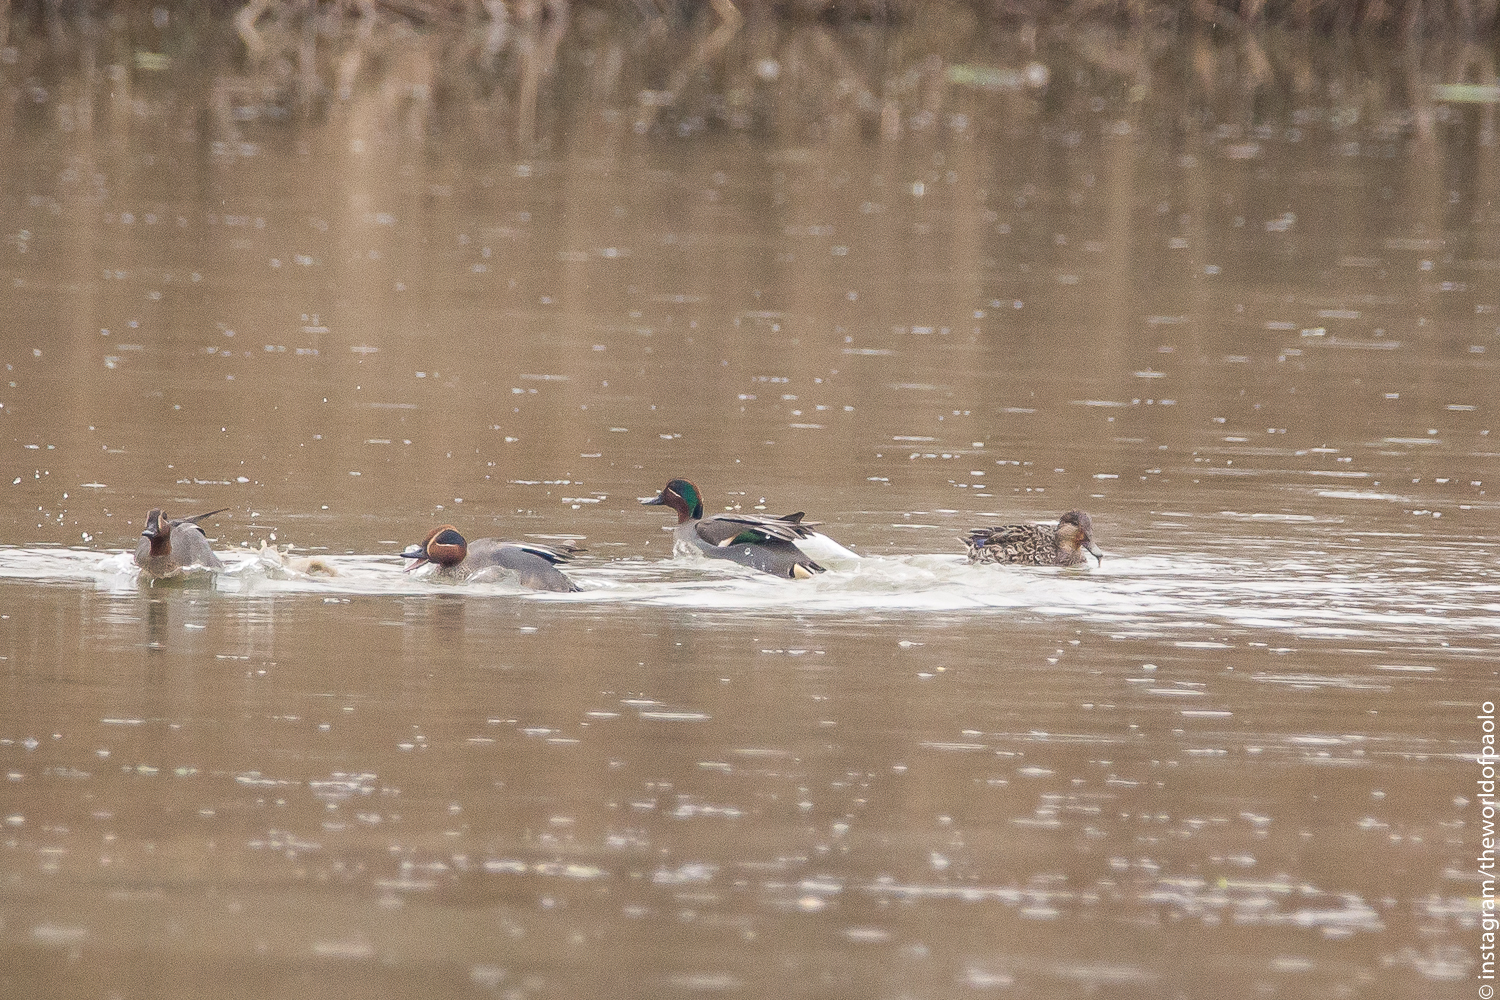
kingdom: Animalia
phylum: Chordata
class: Aves
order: Anseriformes
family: Anatidae
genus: Anas
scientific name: Anas crecca
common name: Eurasian teal
